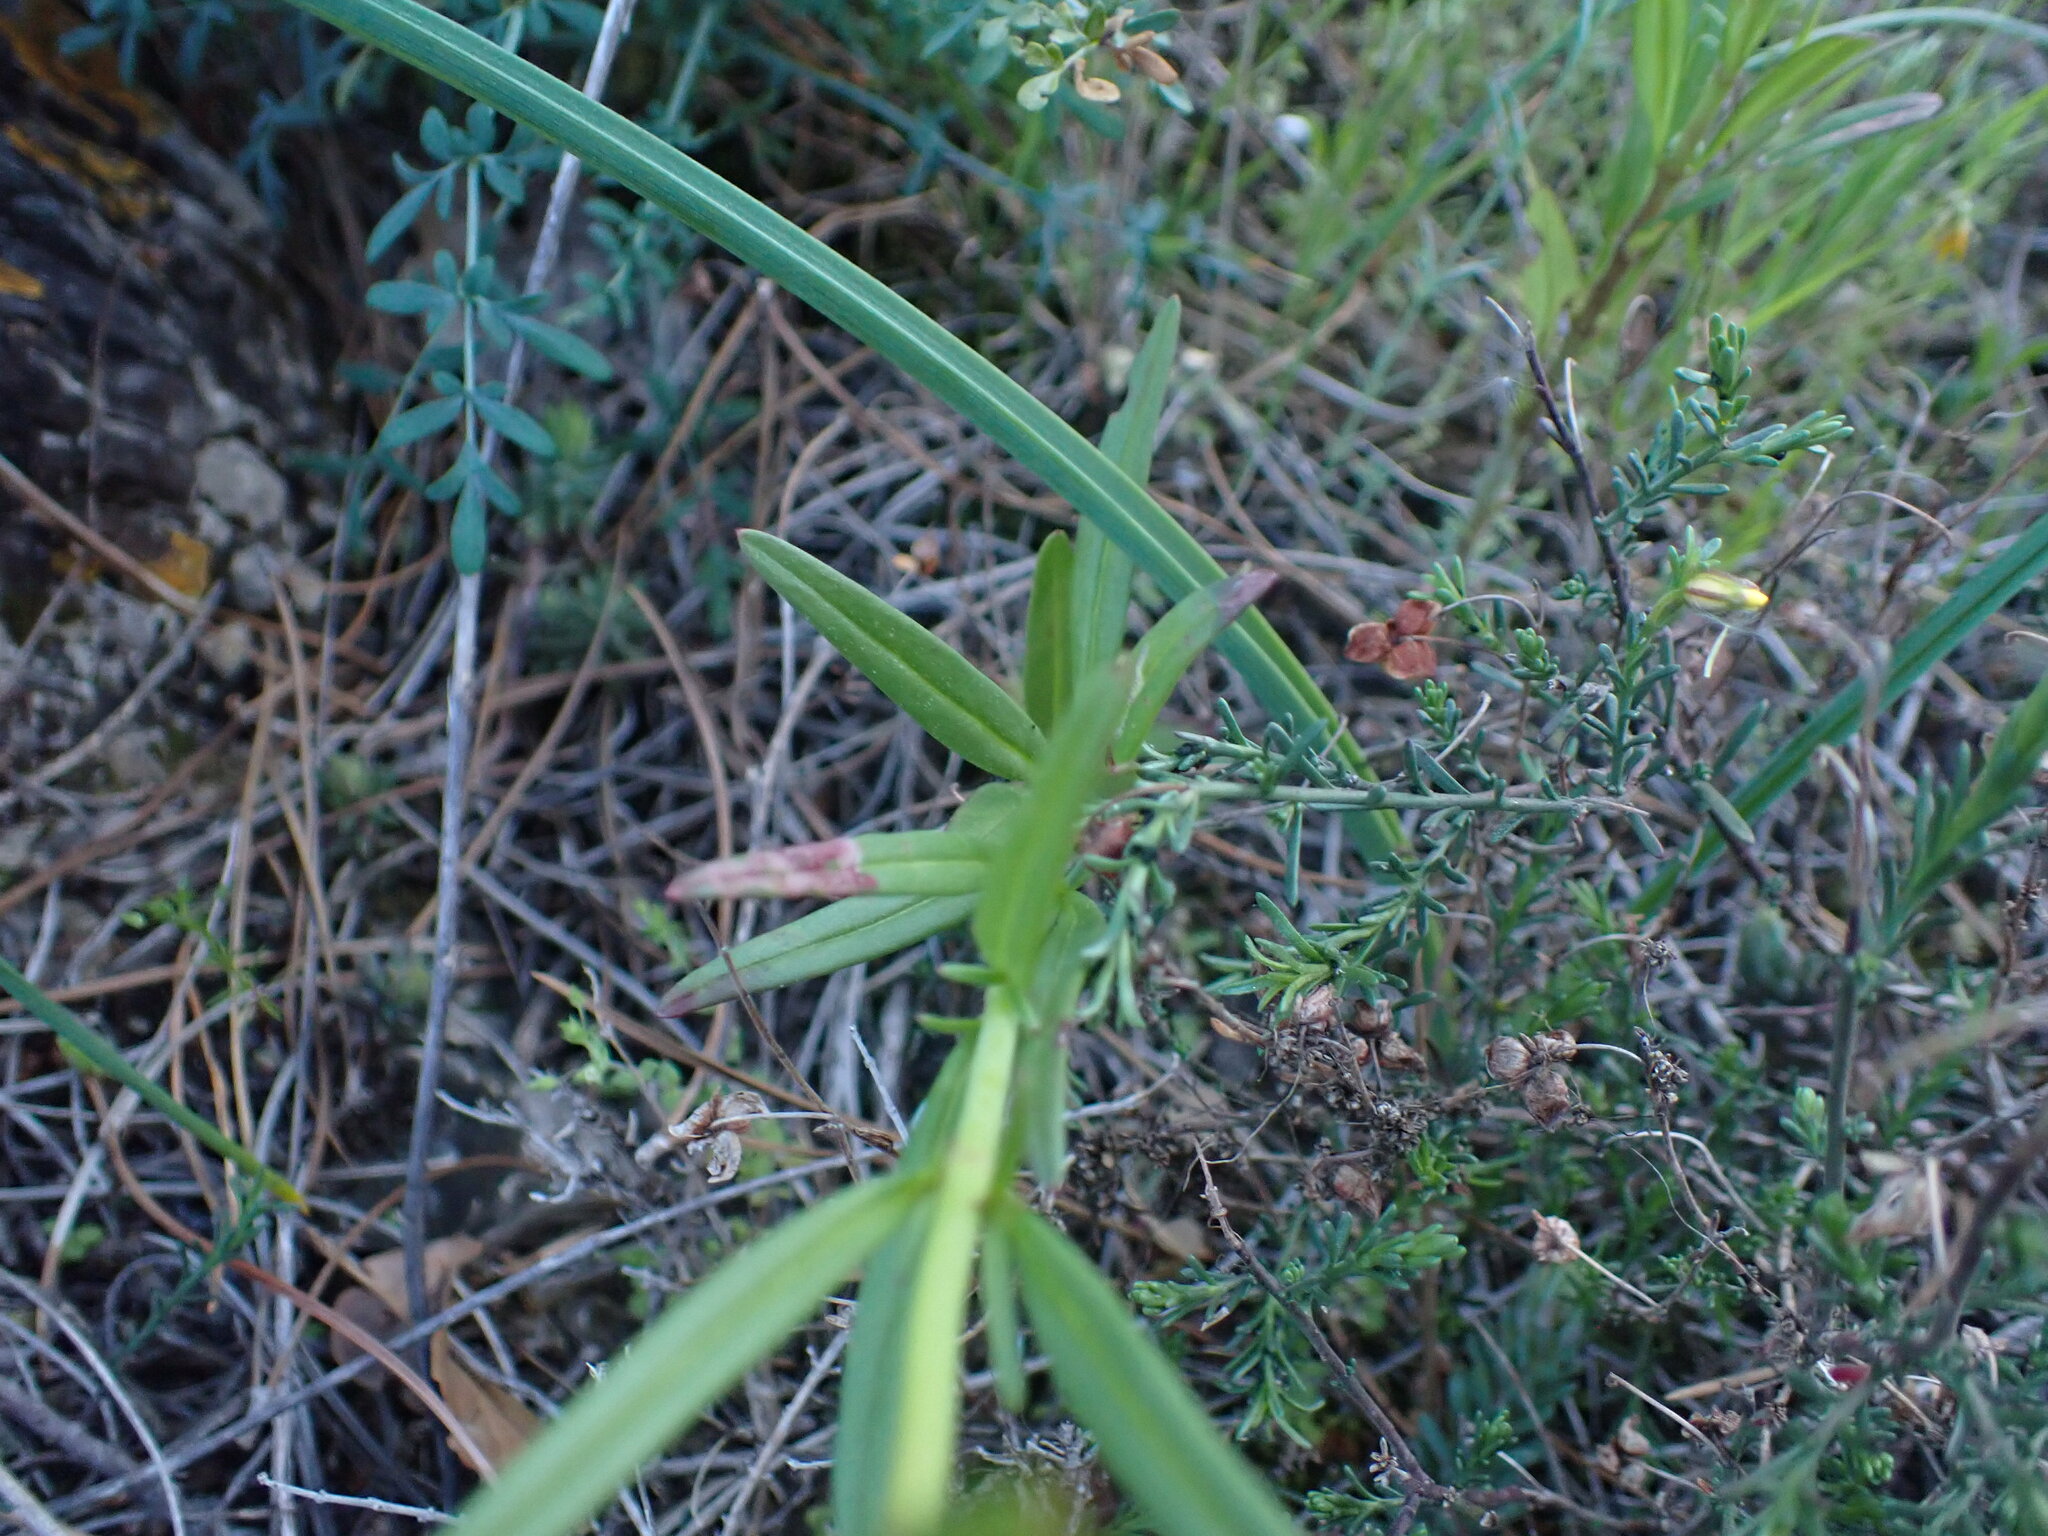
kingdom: Plantae
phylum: Tracheophyta
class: Magnoliopsida
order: Lamiales
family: Plantaginaceae
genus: Misopates
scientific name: Misopates orontium
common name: Weasel's-snout
